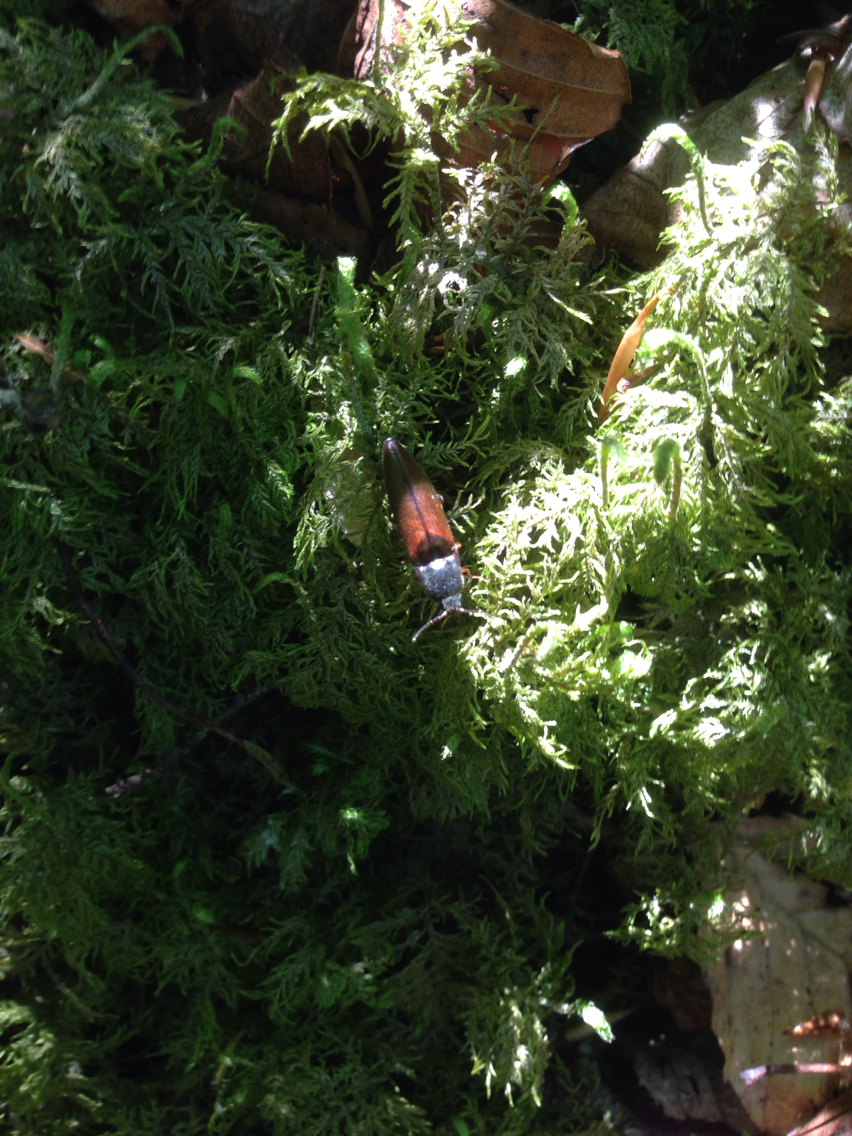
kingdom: Animalia
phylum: Arthropoda
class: Insecta
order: Coleoptera
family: Elateridae
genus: Sericus
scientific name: Sericus honestus
